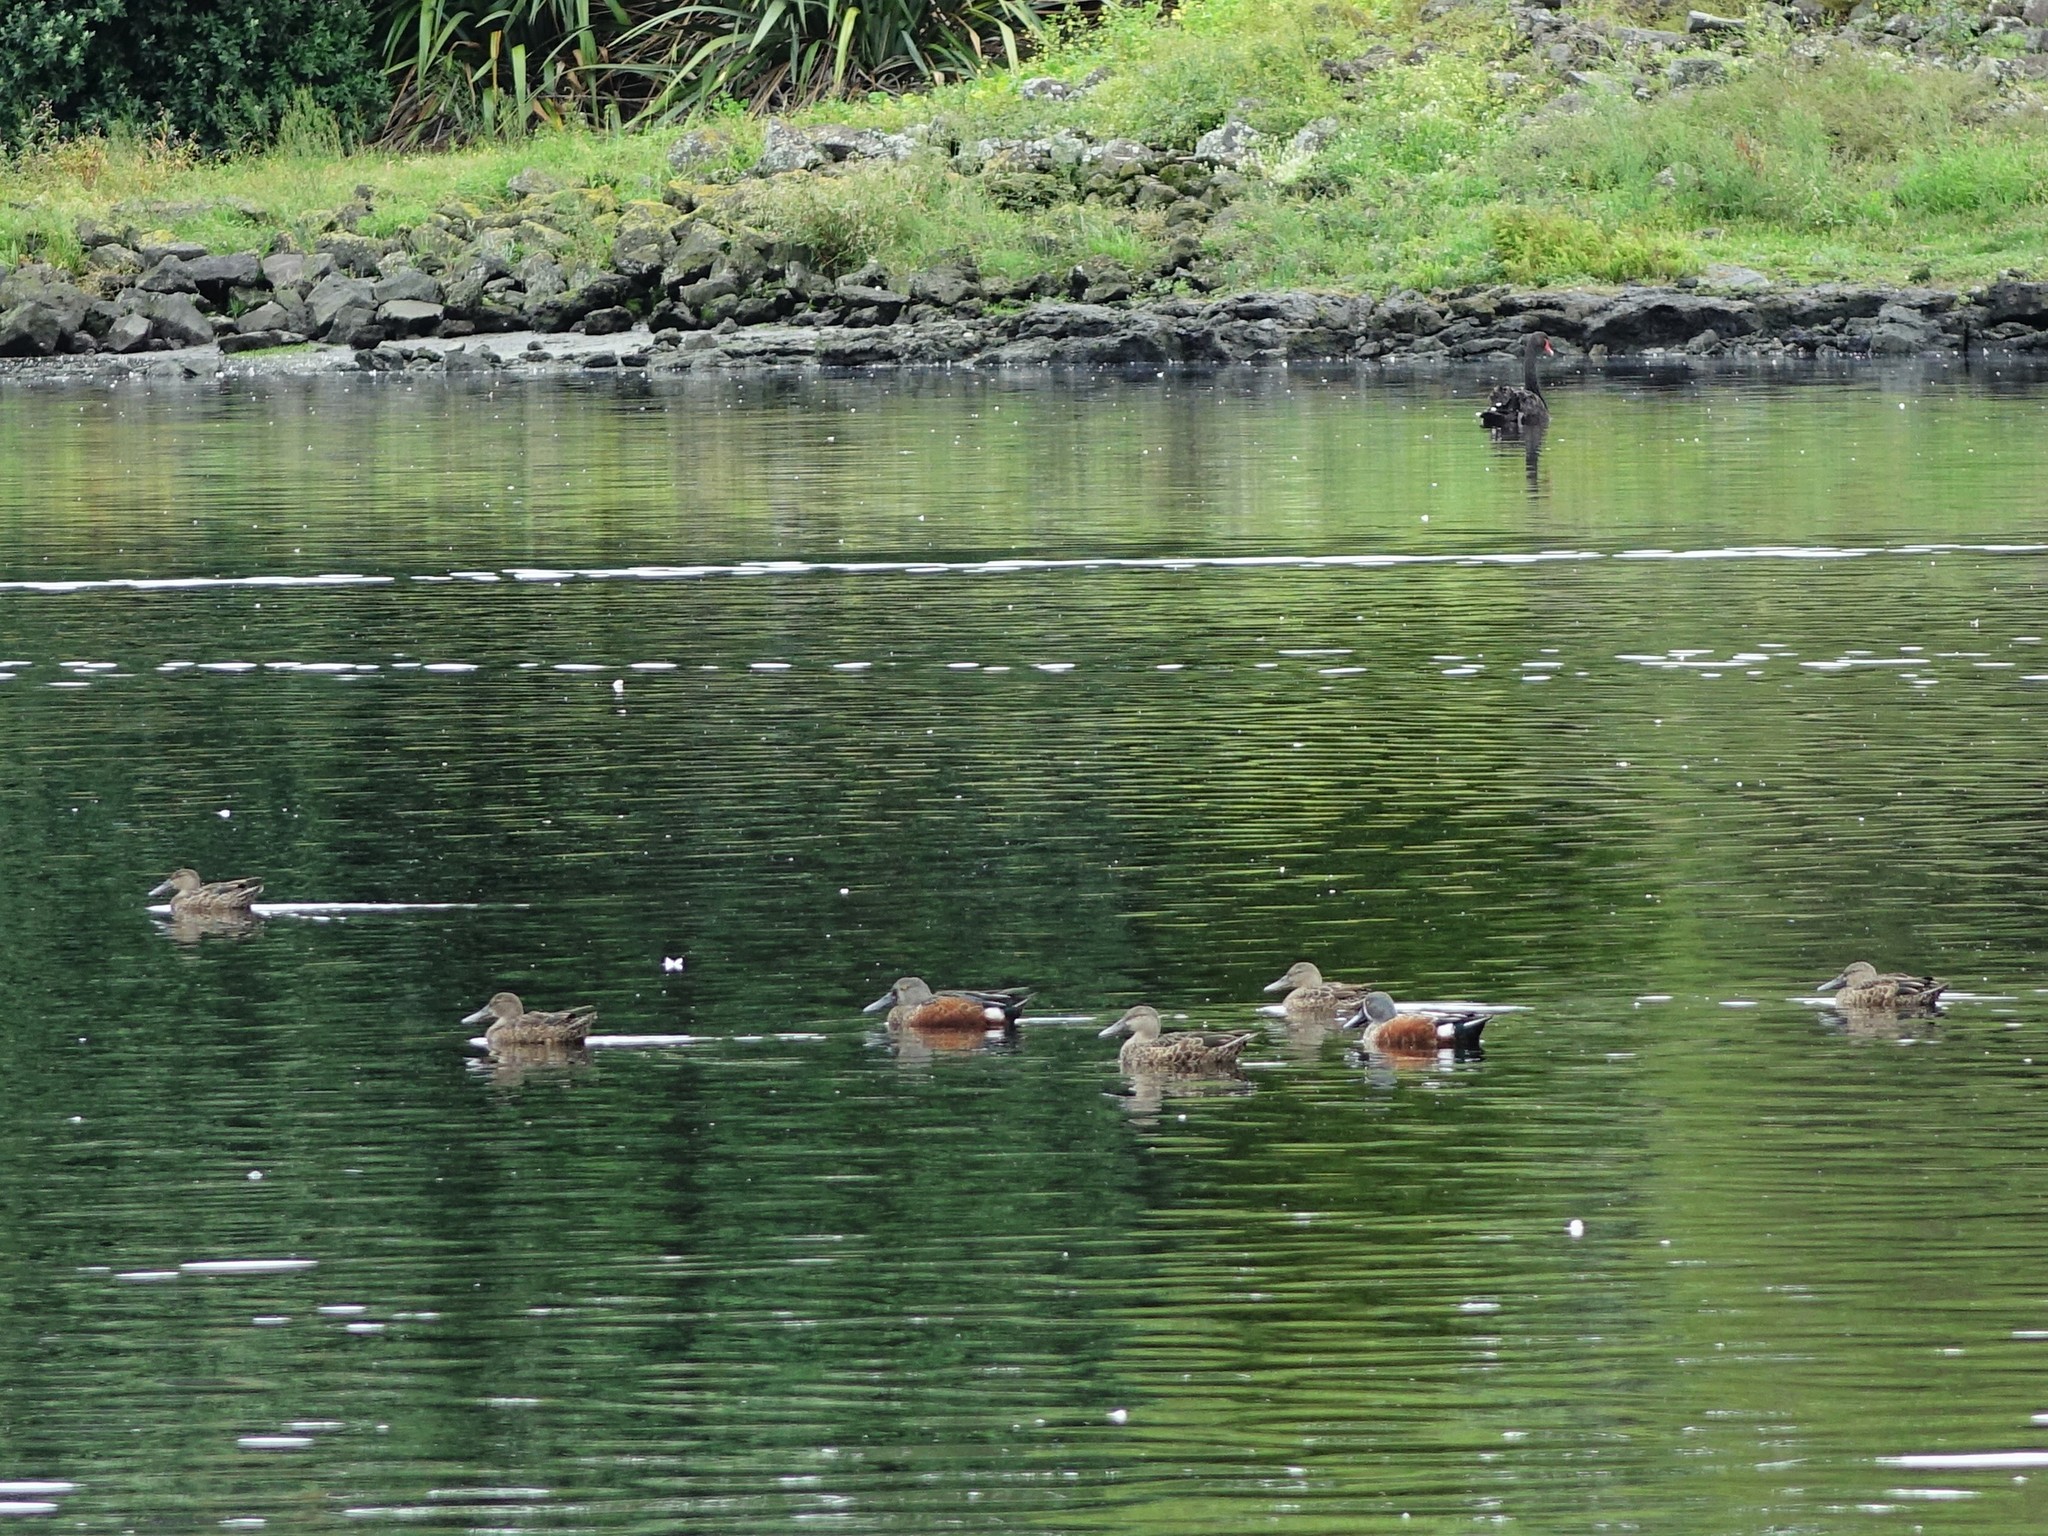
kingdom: Animalia
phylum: Chordata
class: Aves
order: Anseriformes
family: Anatidae
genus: Spatula
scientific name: Spatula rhynchotis
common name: Australian shoveler
